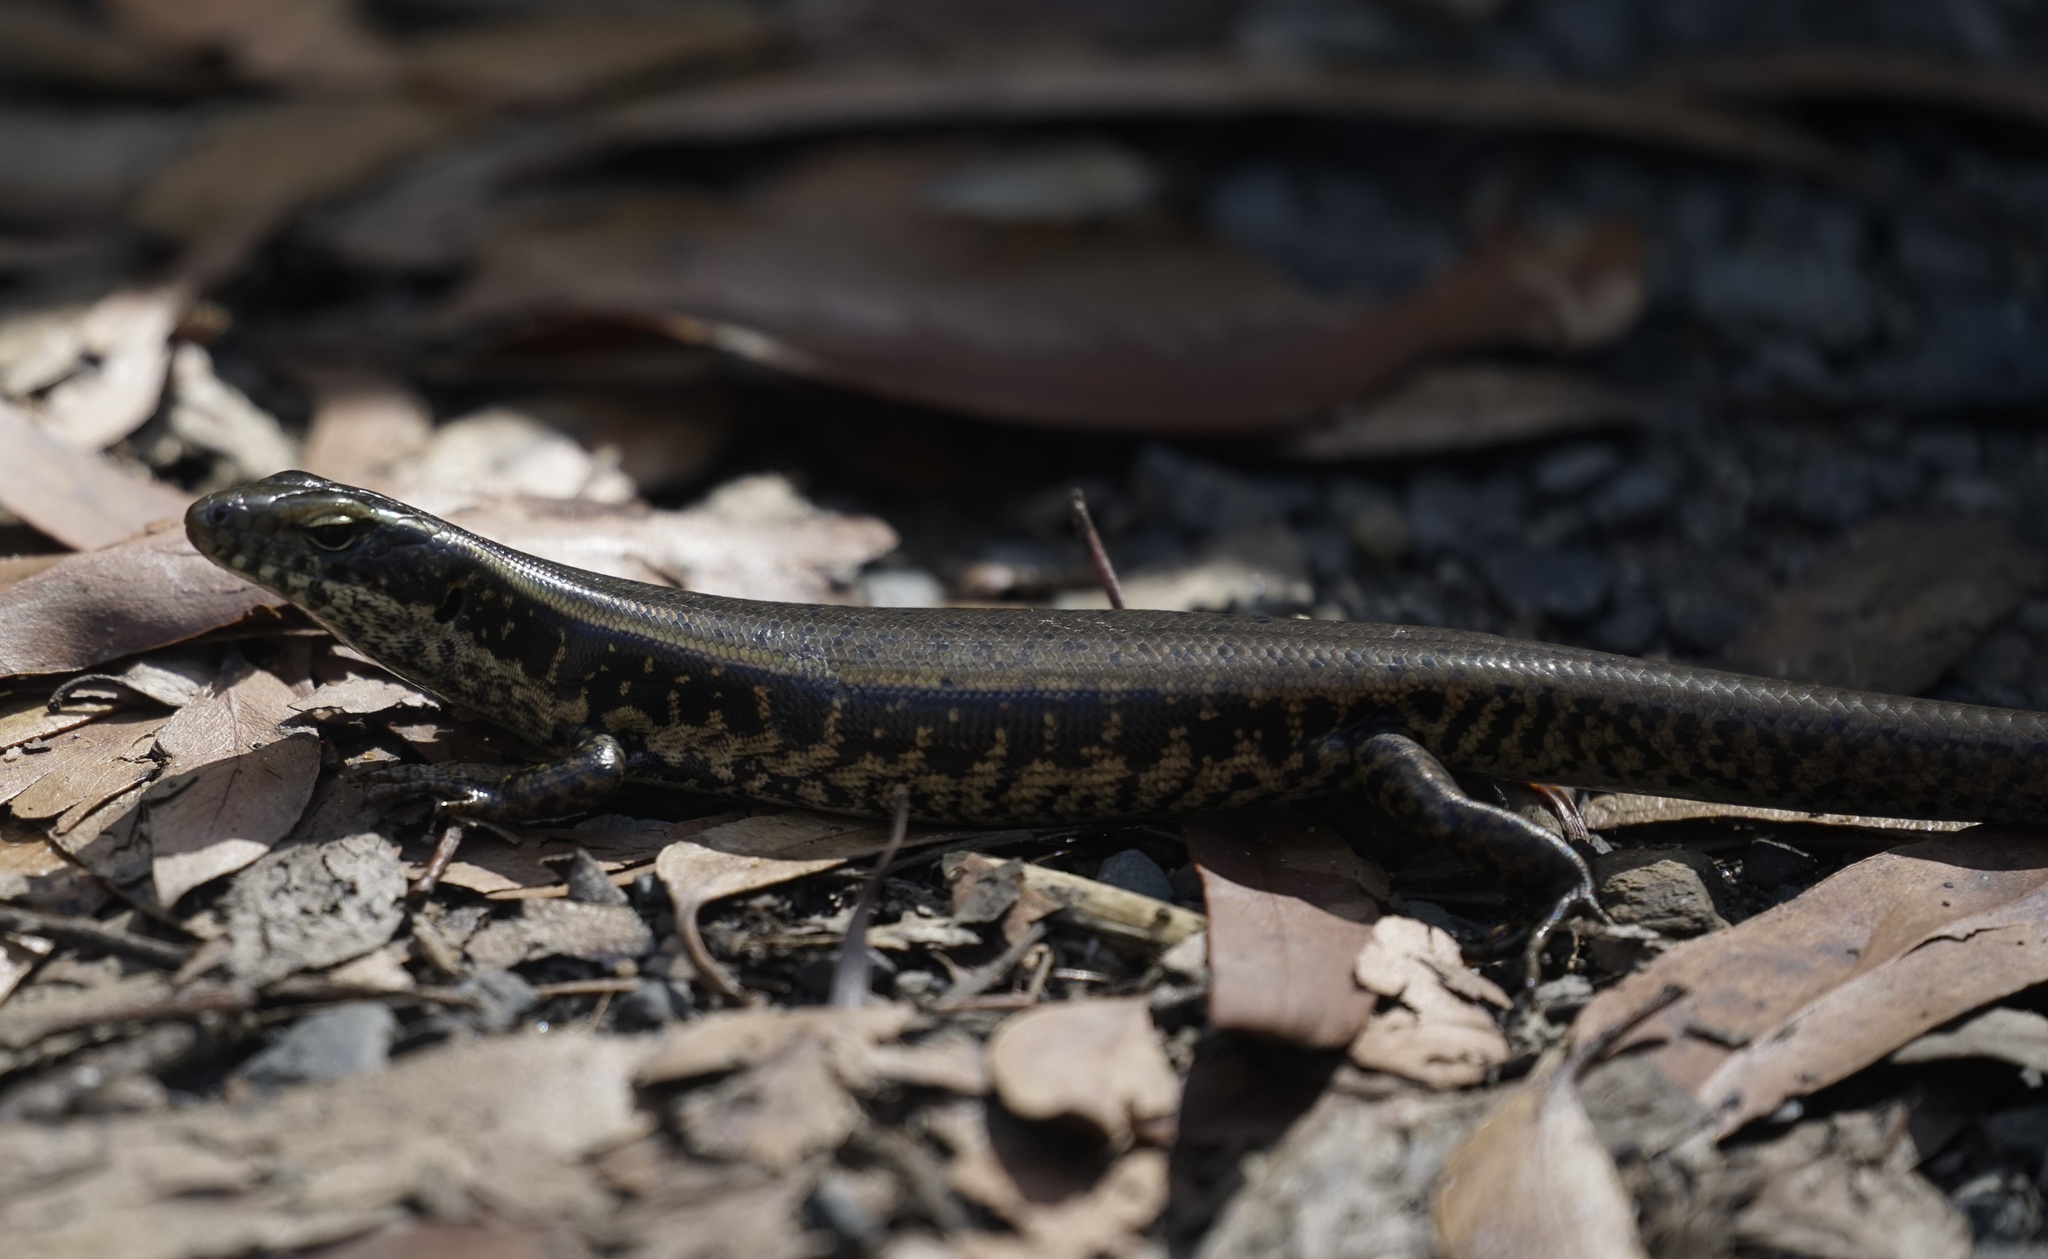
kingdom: Animalia
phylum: Chordata
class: Squamata
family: Scincidae
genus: Eulamprus
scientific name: Eulamprus quoyii
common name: Eastern water skink
